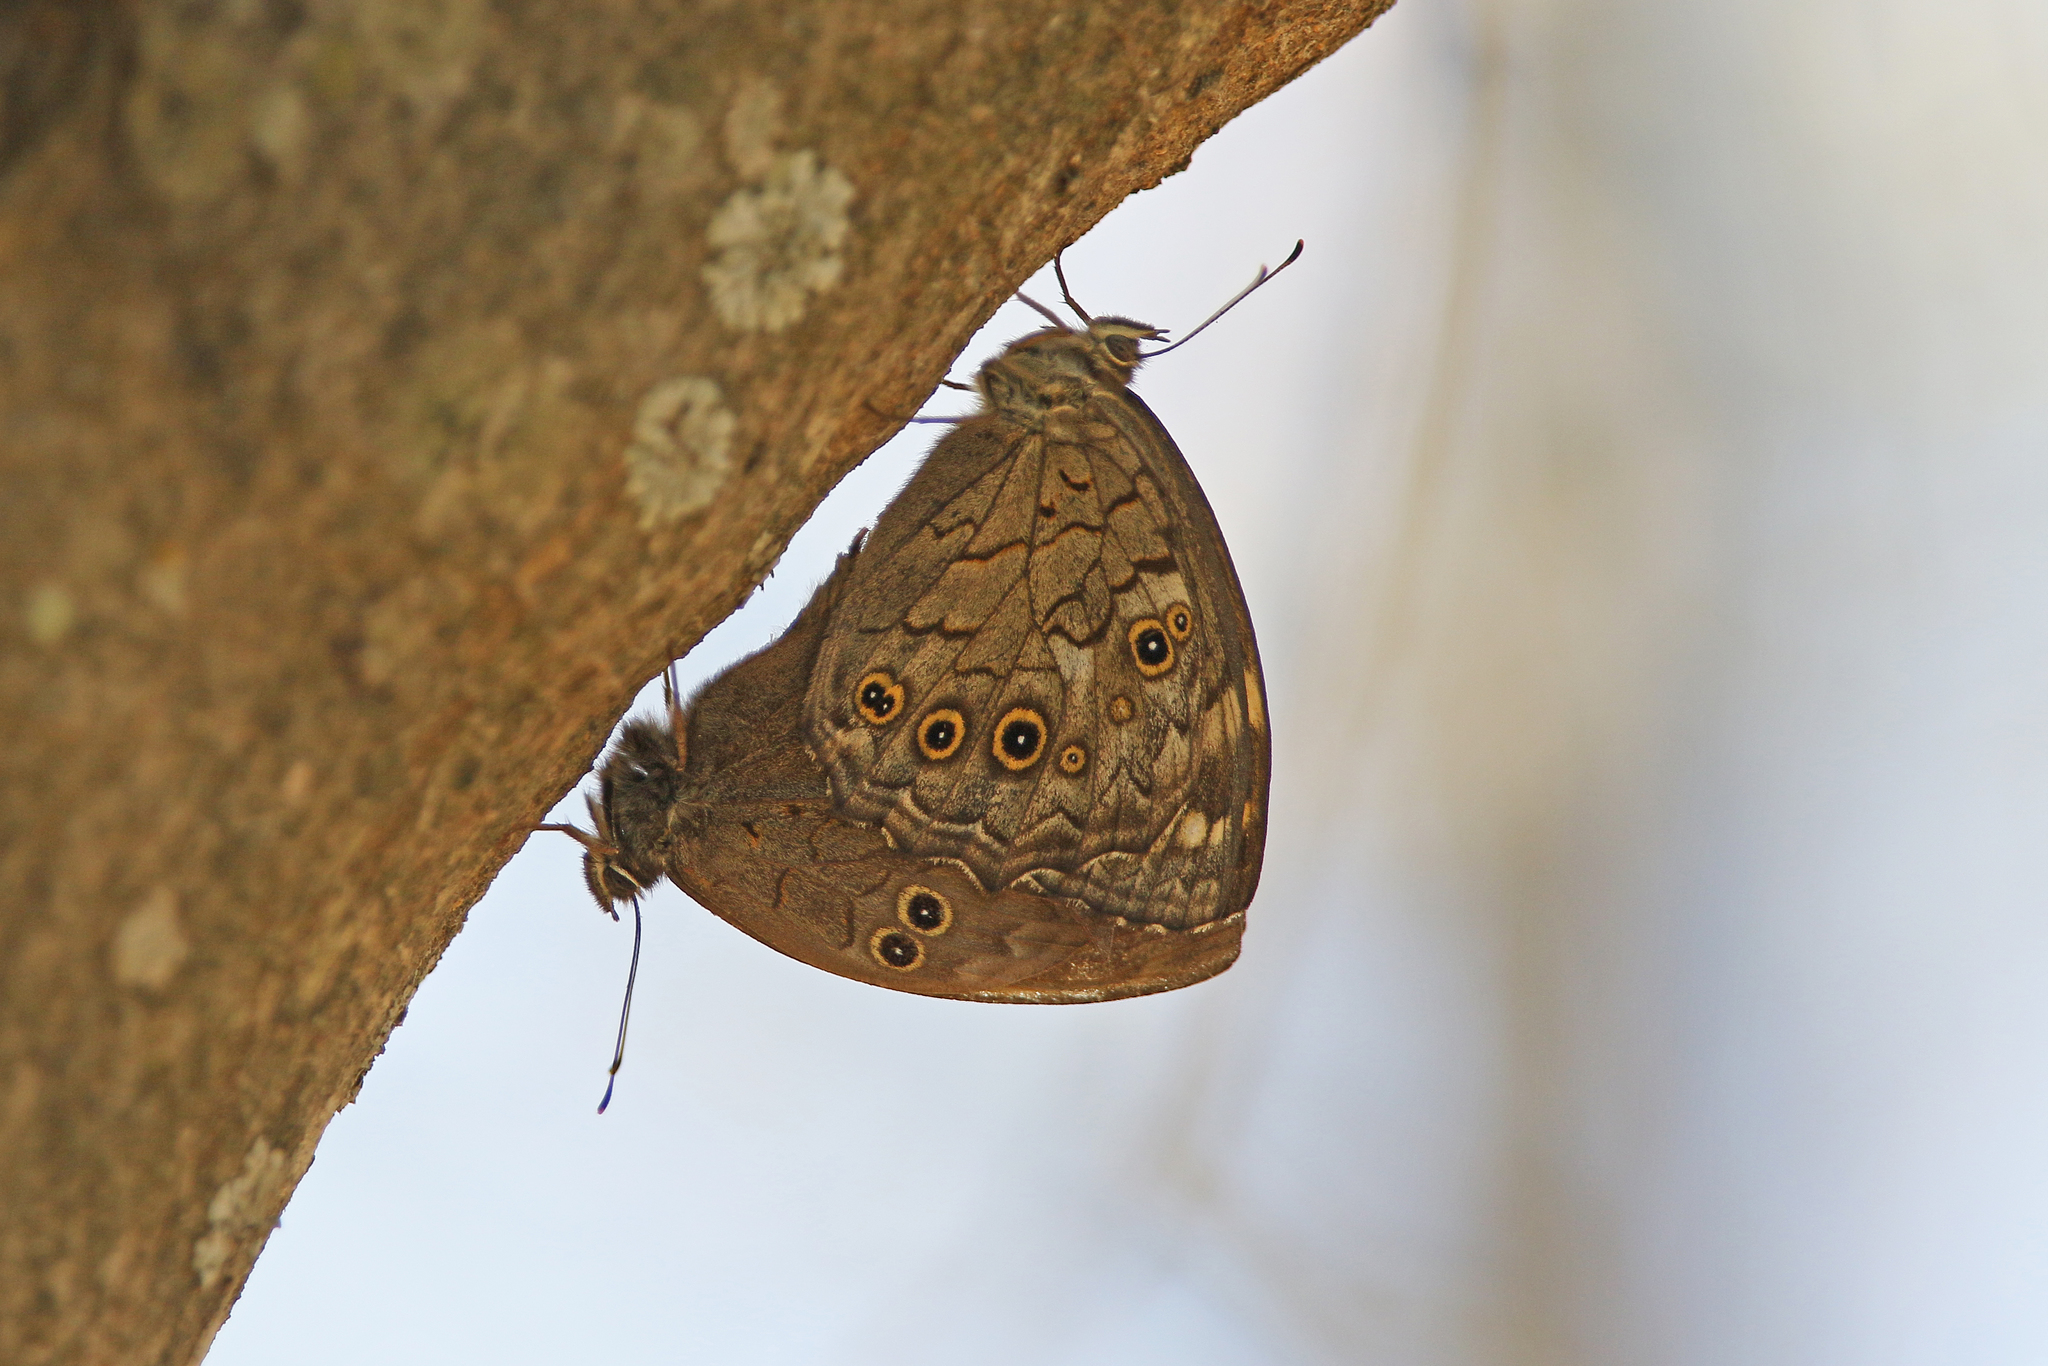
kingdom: Animalia
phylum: Arthropoda
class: Insecta
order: Lepidoptera
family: Nymphalidae
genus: Kirinia
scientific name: Kirinia roxelana
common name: Lattice brown
